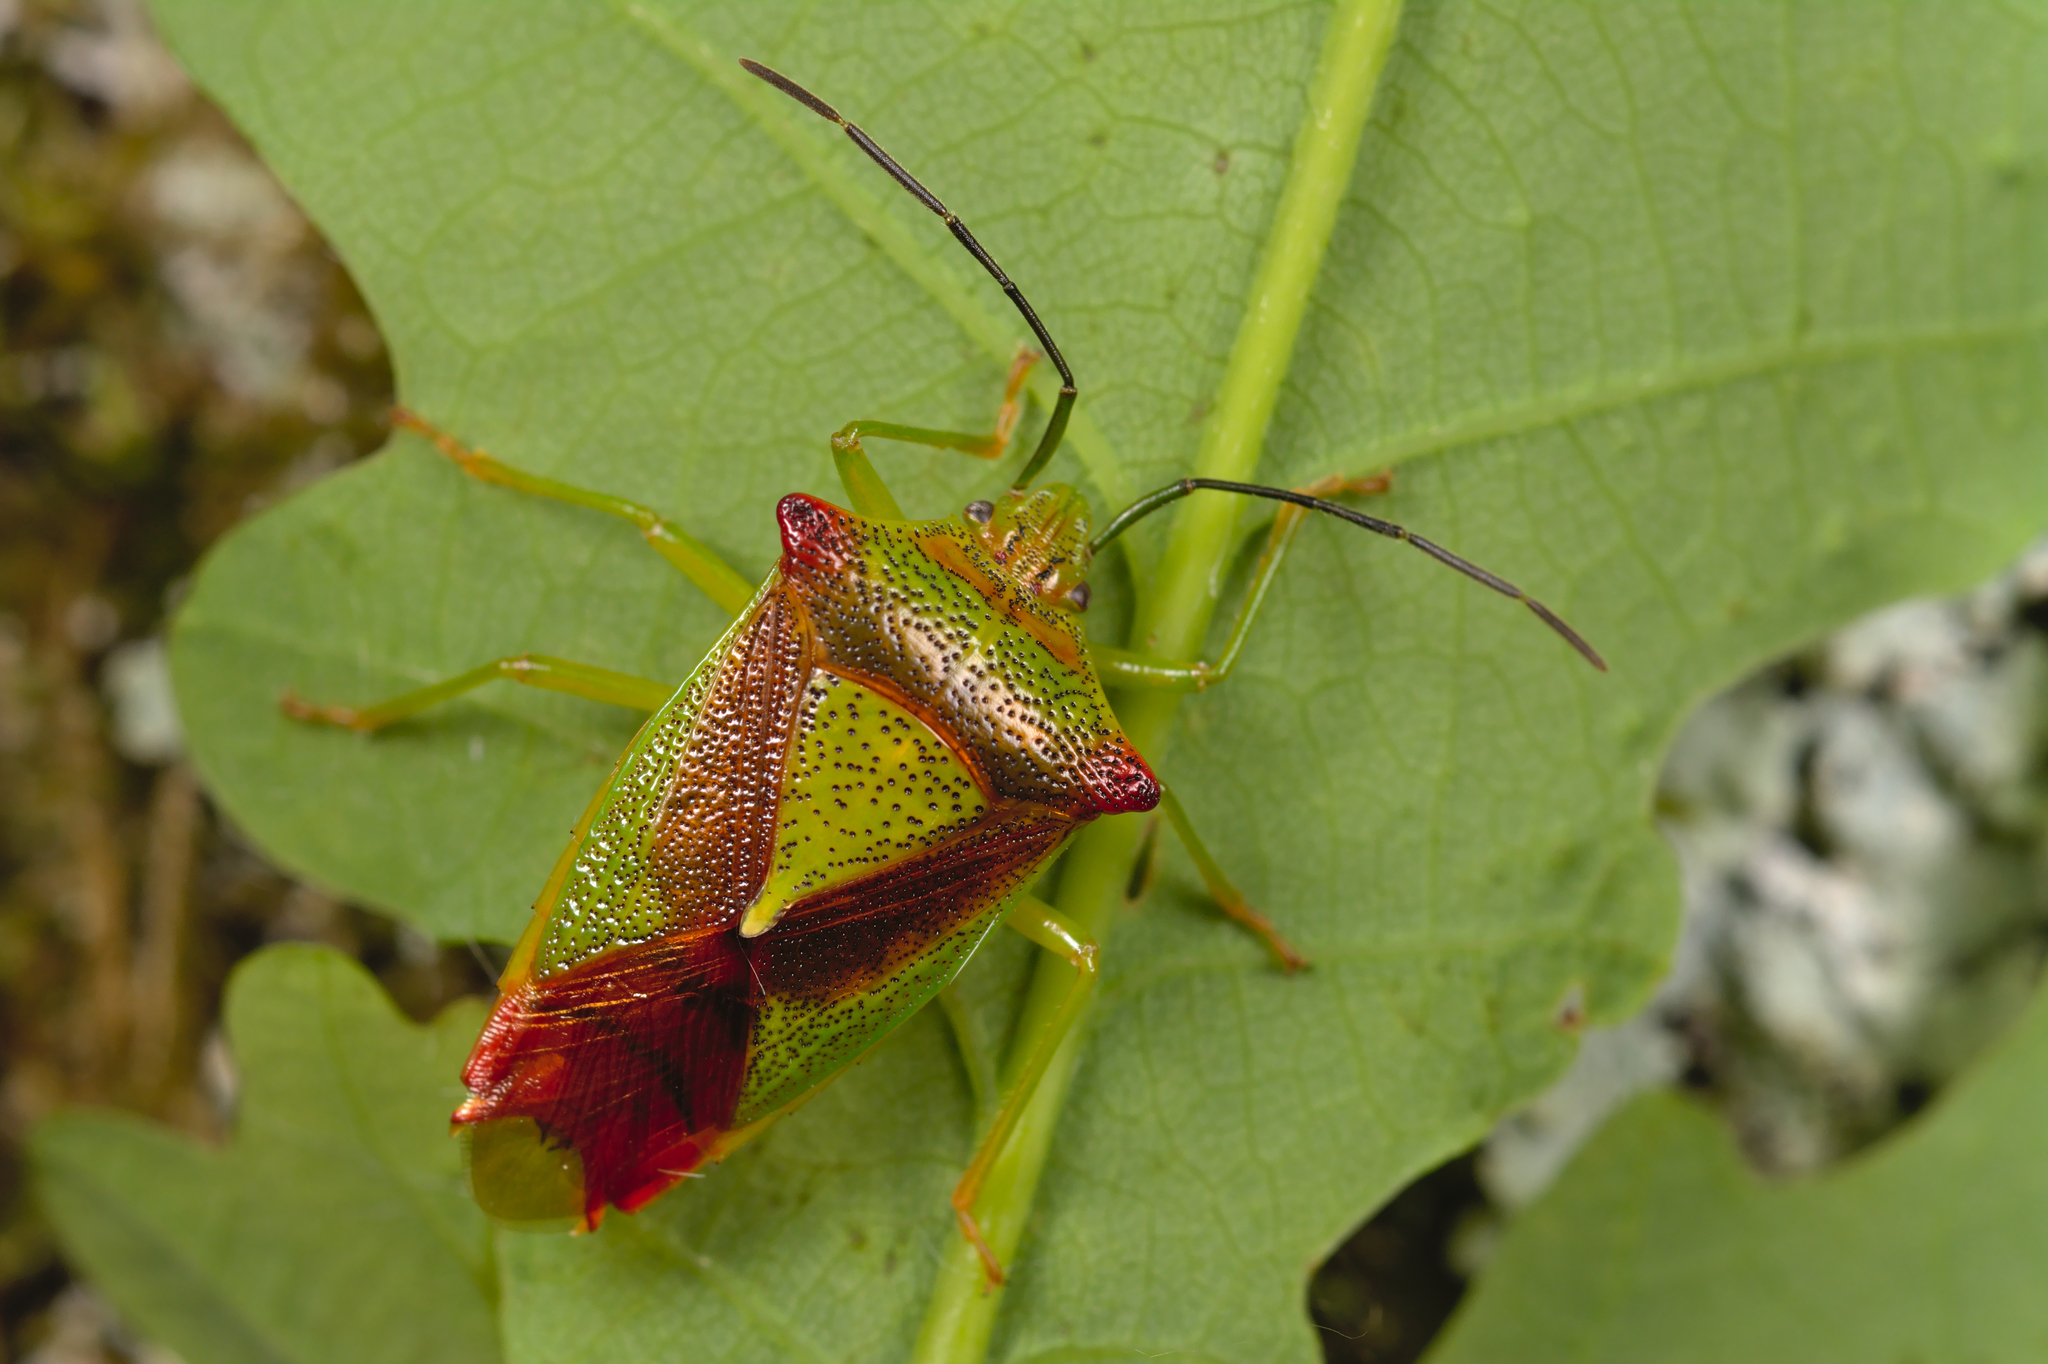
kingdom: Animalia
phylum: Arthropoda
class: Insecta
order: Hemiptera
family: Acanthosomatidae
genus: Acanthosoma
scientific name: Acanthosoma haemorrhoidale
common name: Hawthorn shieldbug
